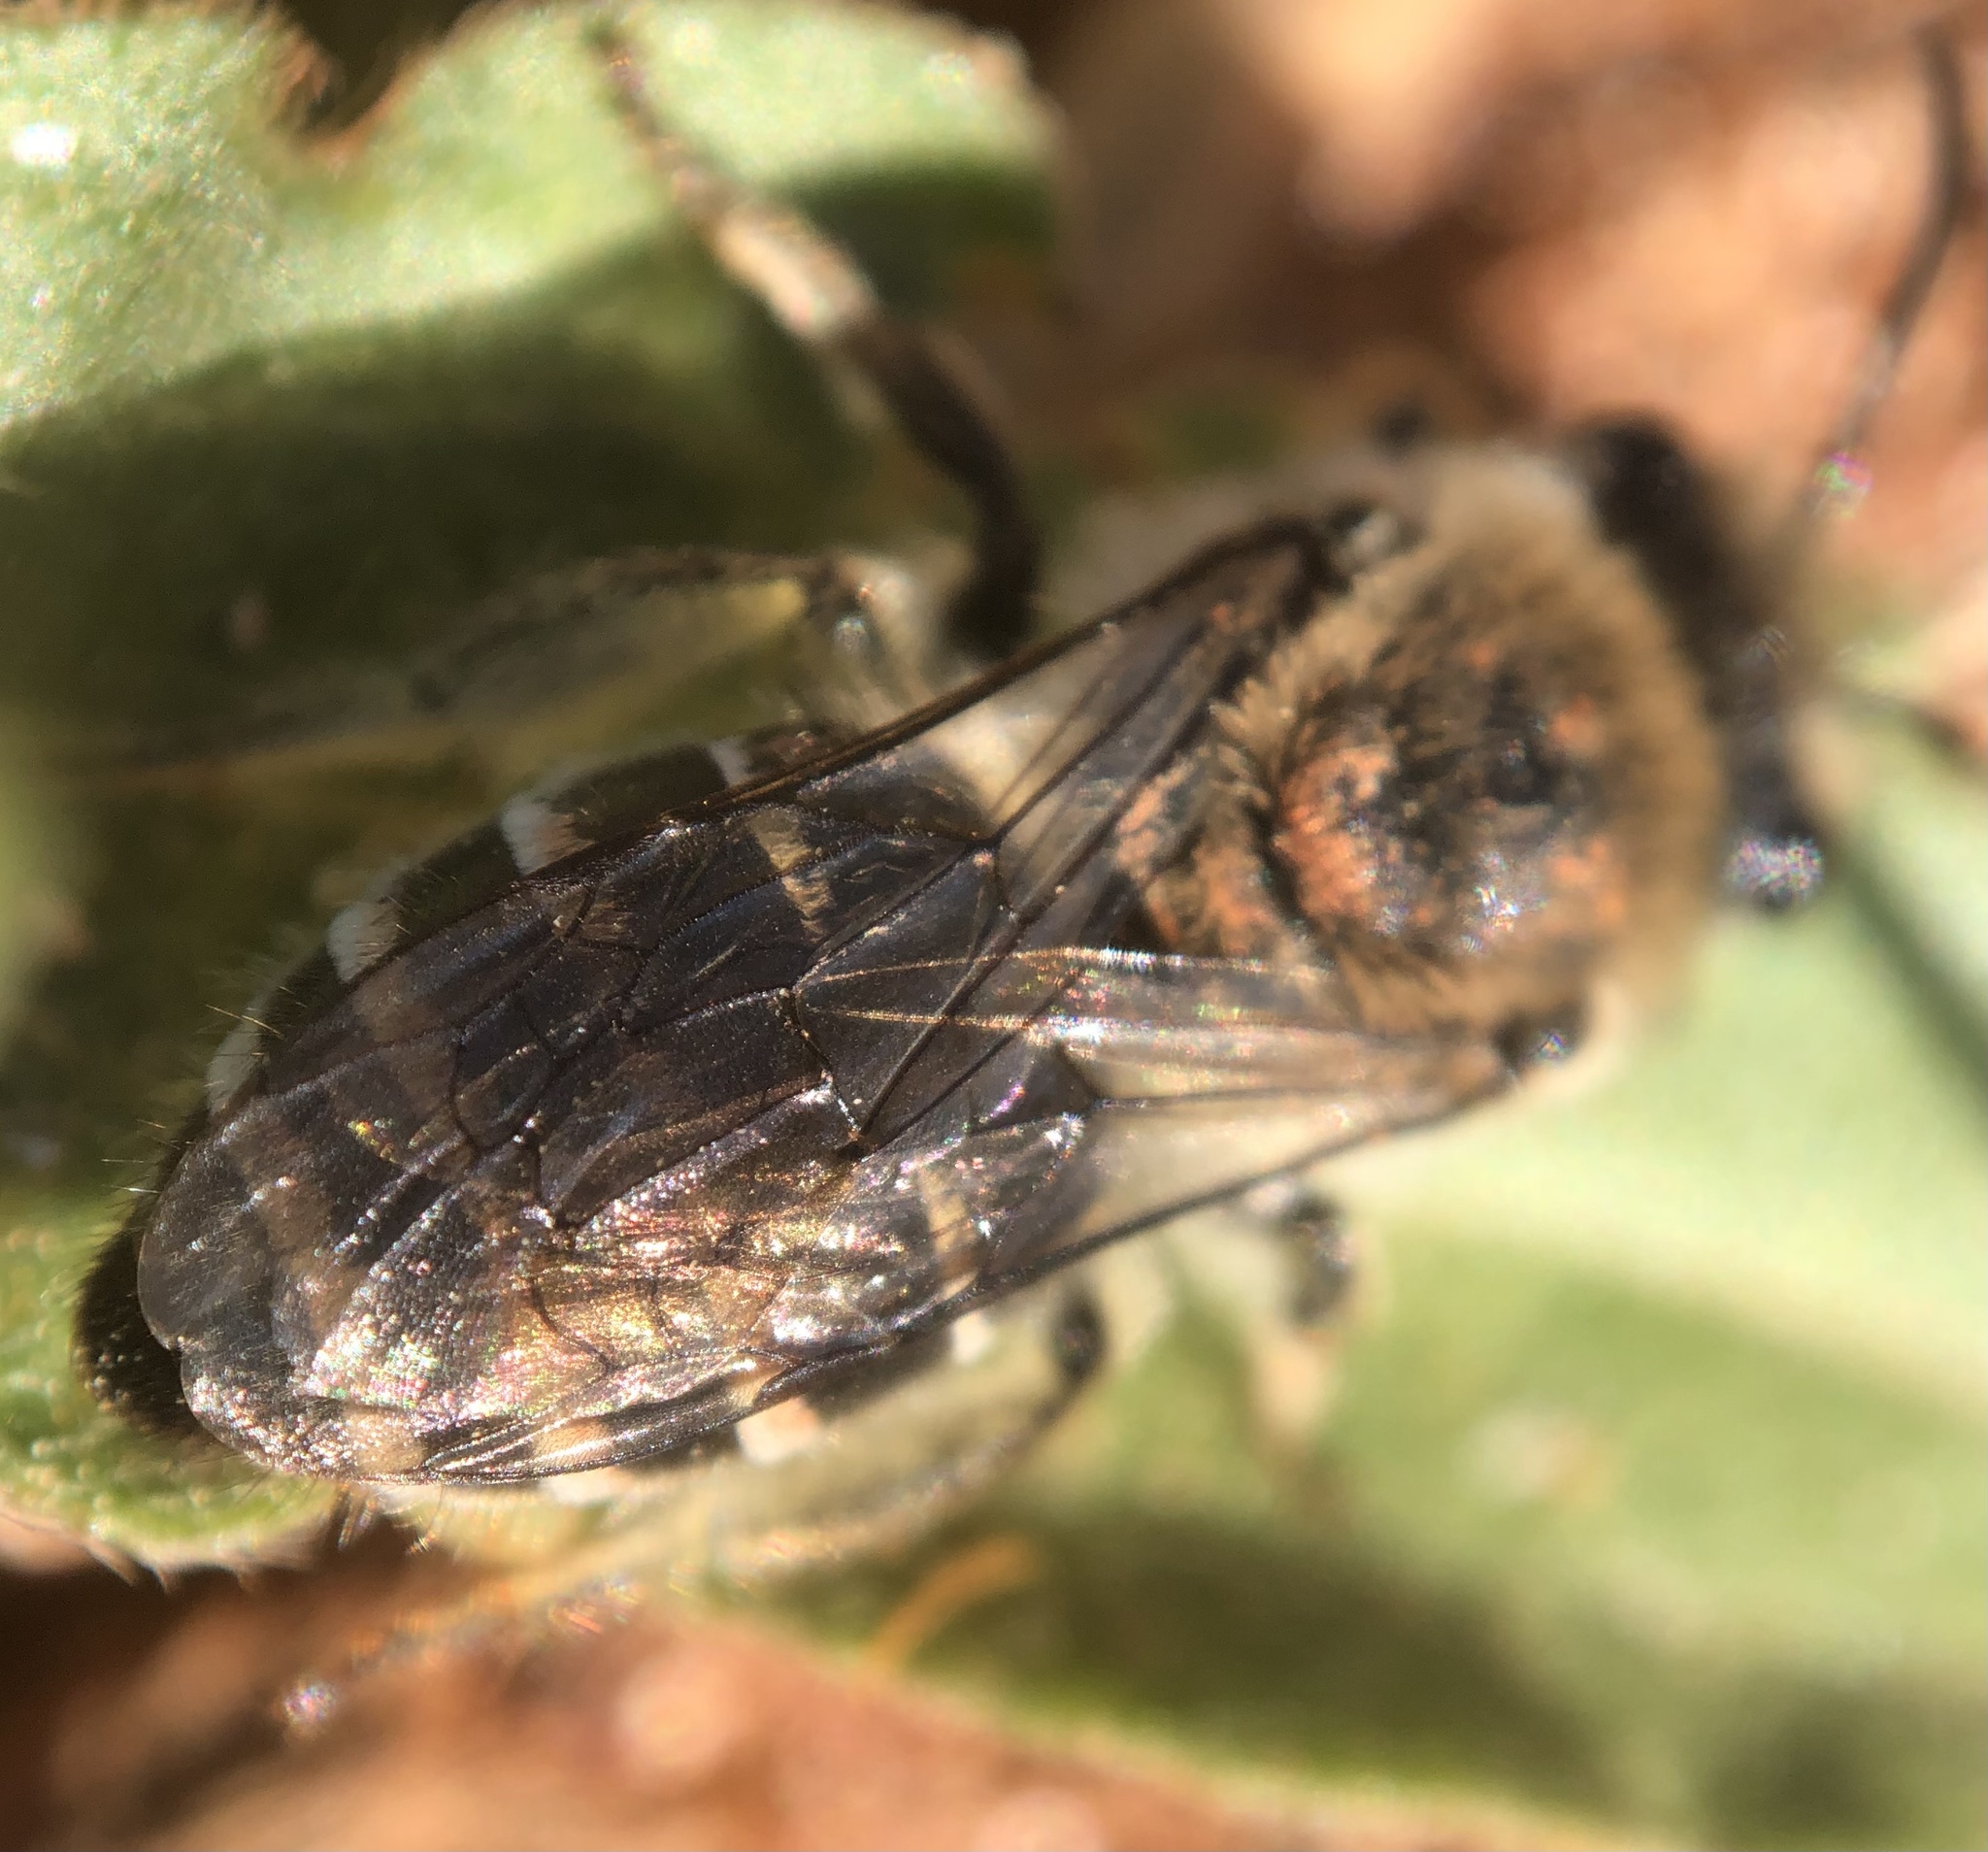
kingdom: Animalia
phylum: Arthropoda
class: Insecta
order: Hymenoptera
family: Colletidae
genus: Colletes
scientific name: Colletes inaequalis
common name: Unequal cellophane bee
